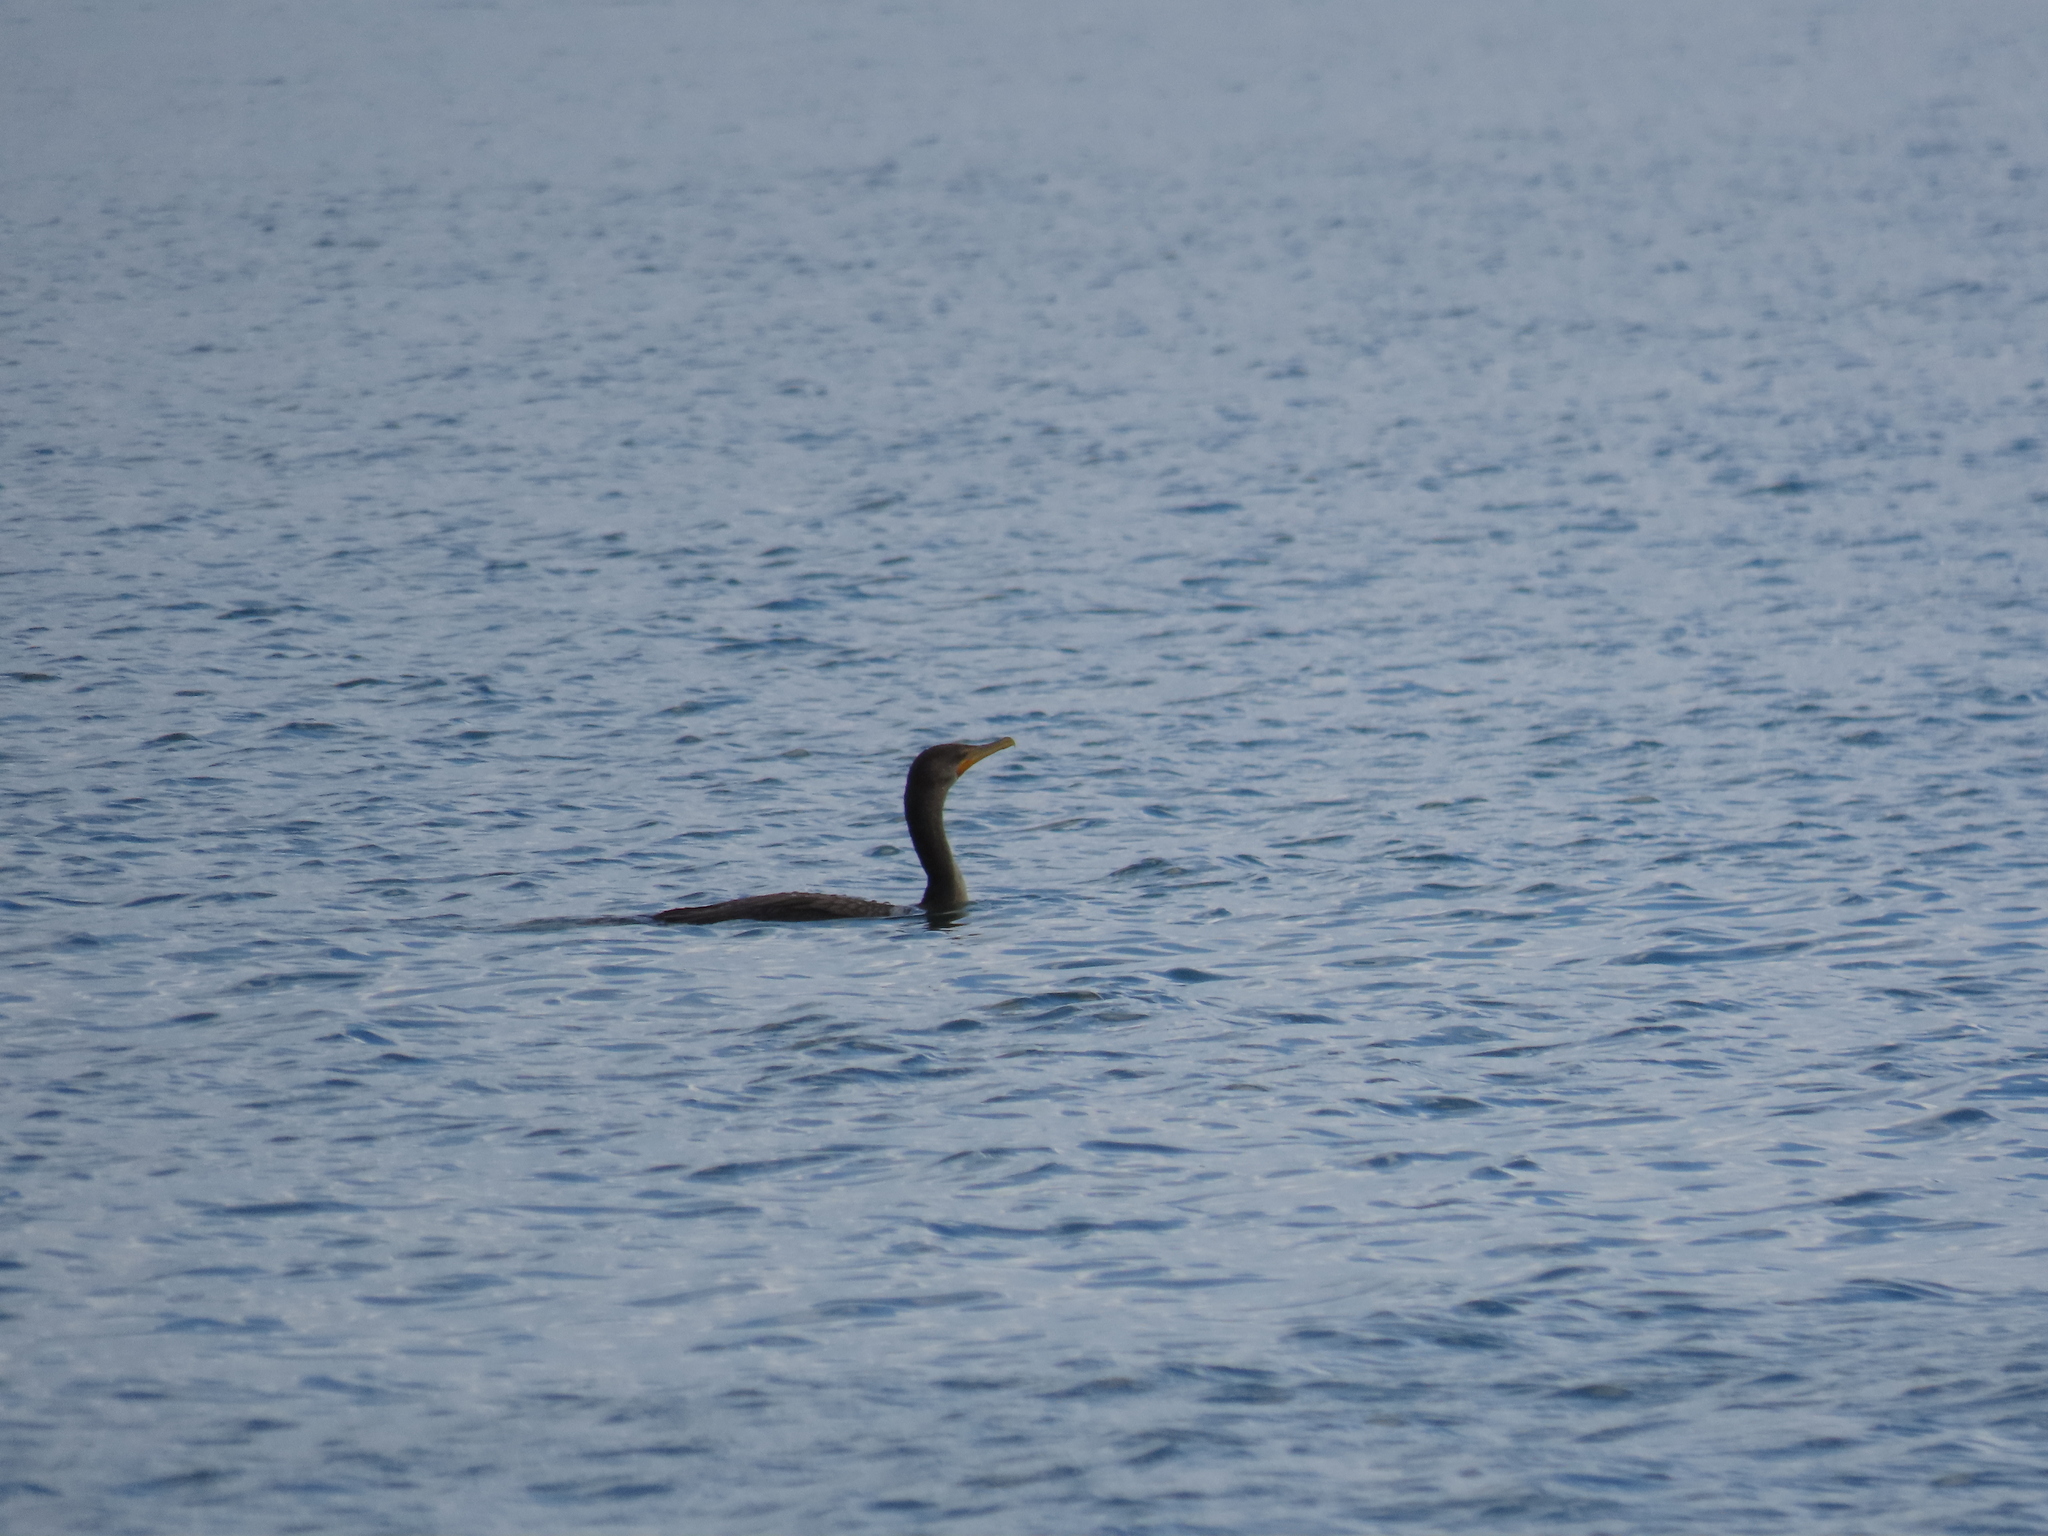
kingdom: Animalia
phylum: Chordata
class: Aves
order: Suliformes
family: Phalacrocoracidae
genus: Phalacrocorax
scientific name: Phalacrocorax auritus
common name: Double-crested cormorant
